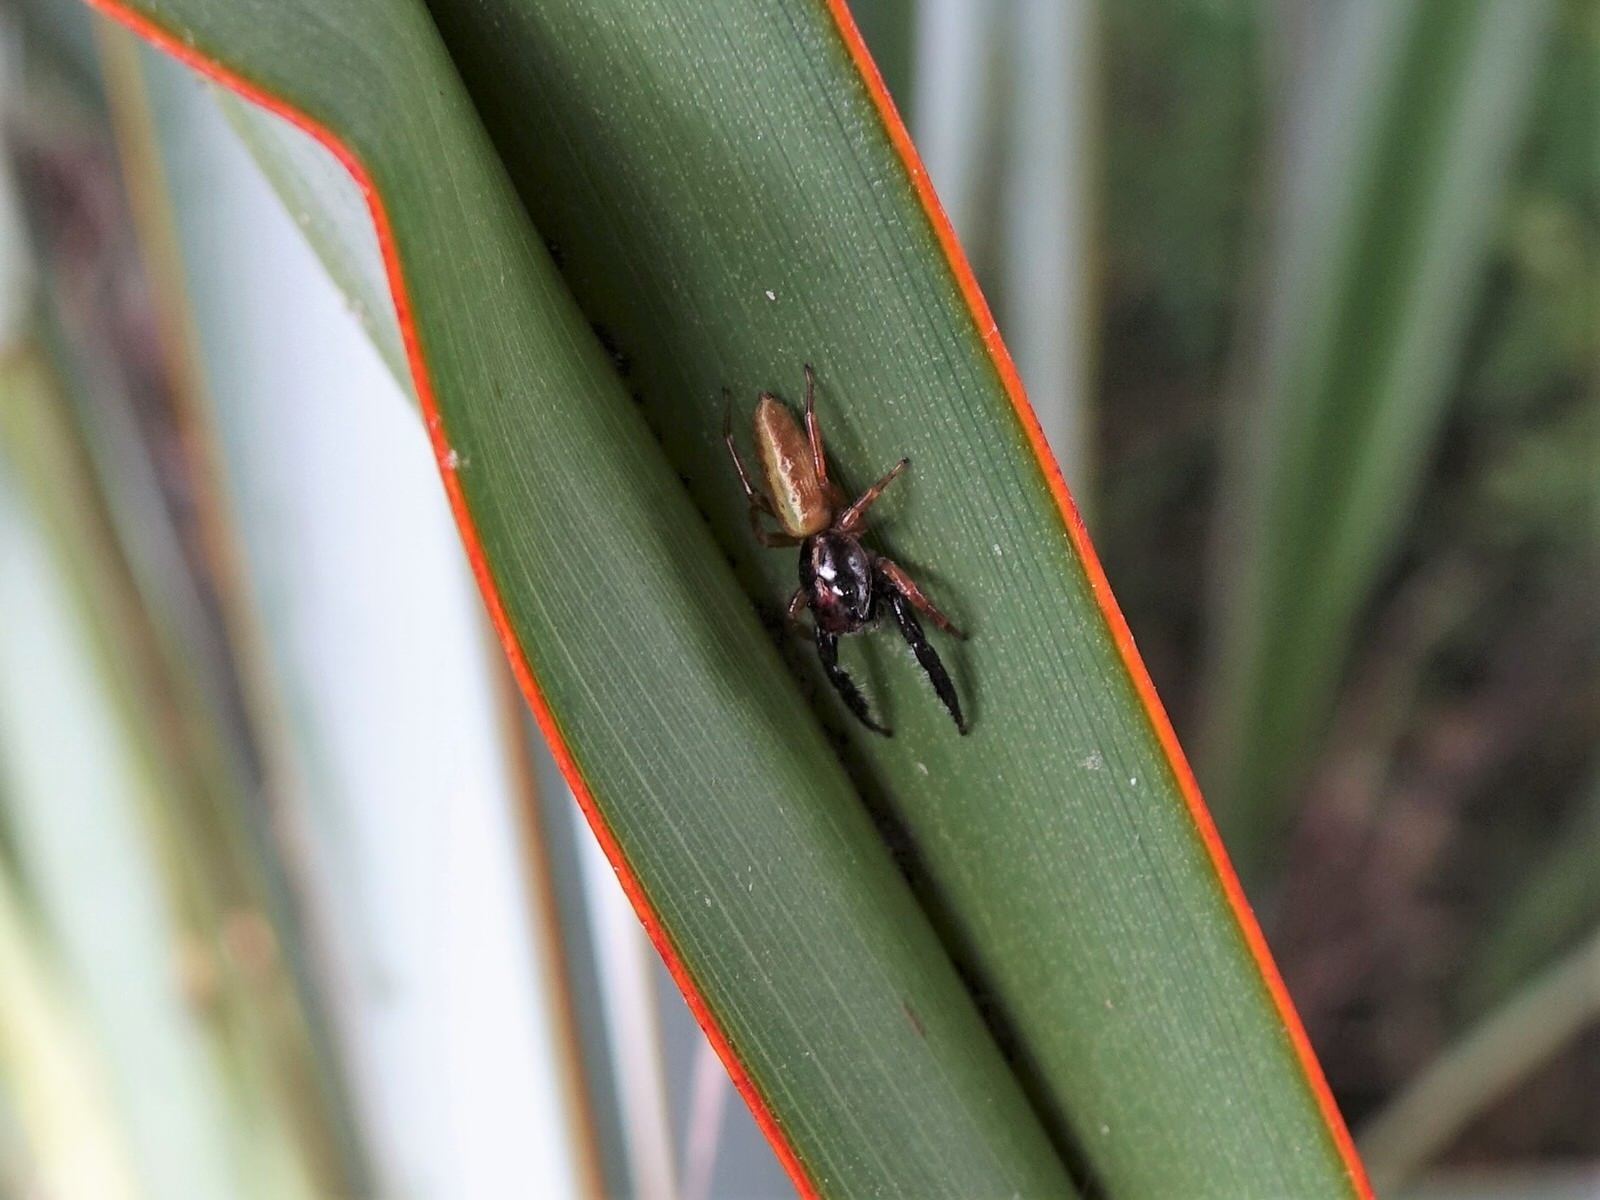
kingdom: Animalia
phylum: Arthropoda
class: Arachnida
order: Araneae
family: Salticidae
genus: Trite
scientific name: Trite planiceps
